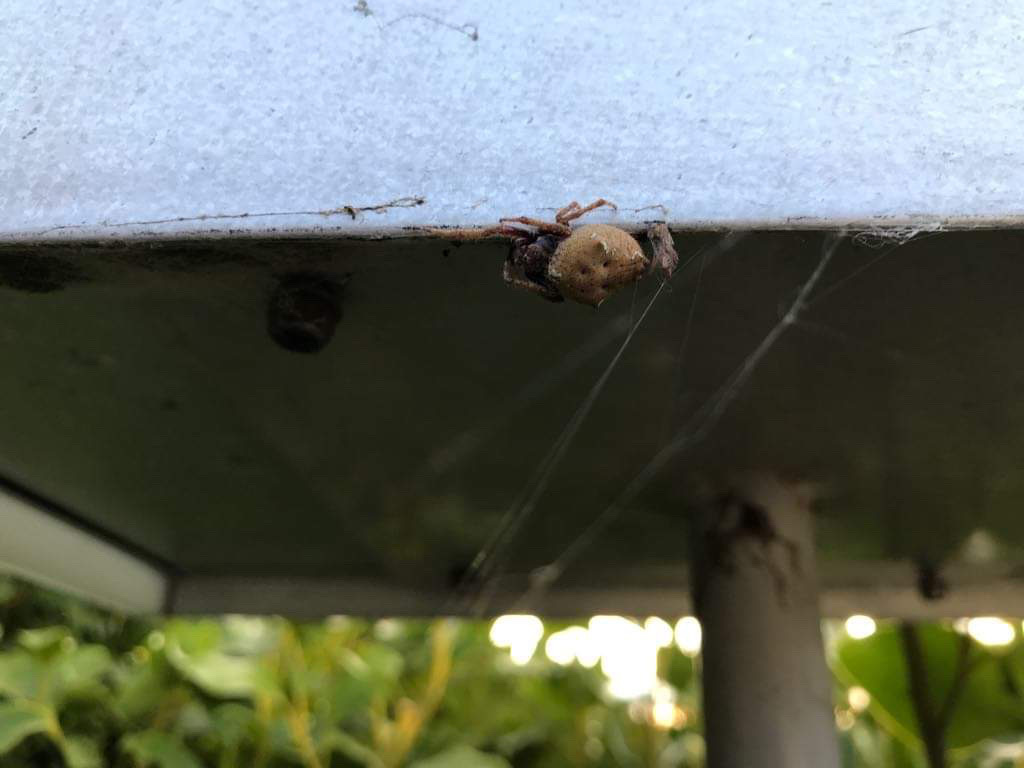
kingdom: Animalia
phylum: Arthropoda
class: Arachnida
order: Araneae
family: Araneidae
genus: Eriophora
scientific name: Eriophora pustulosa
